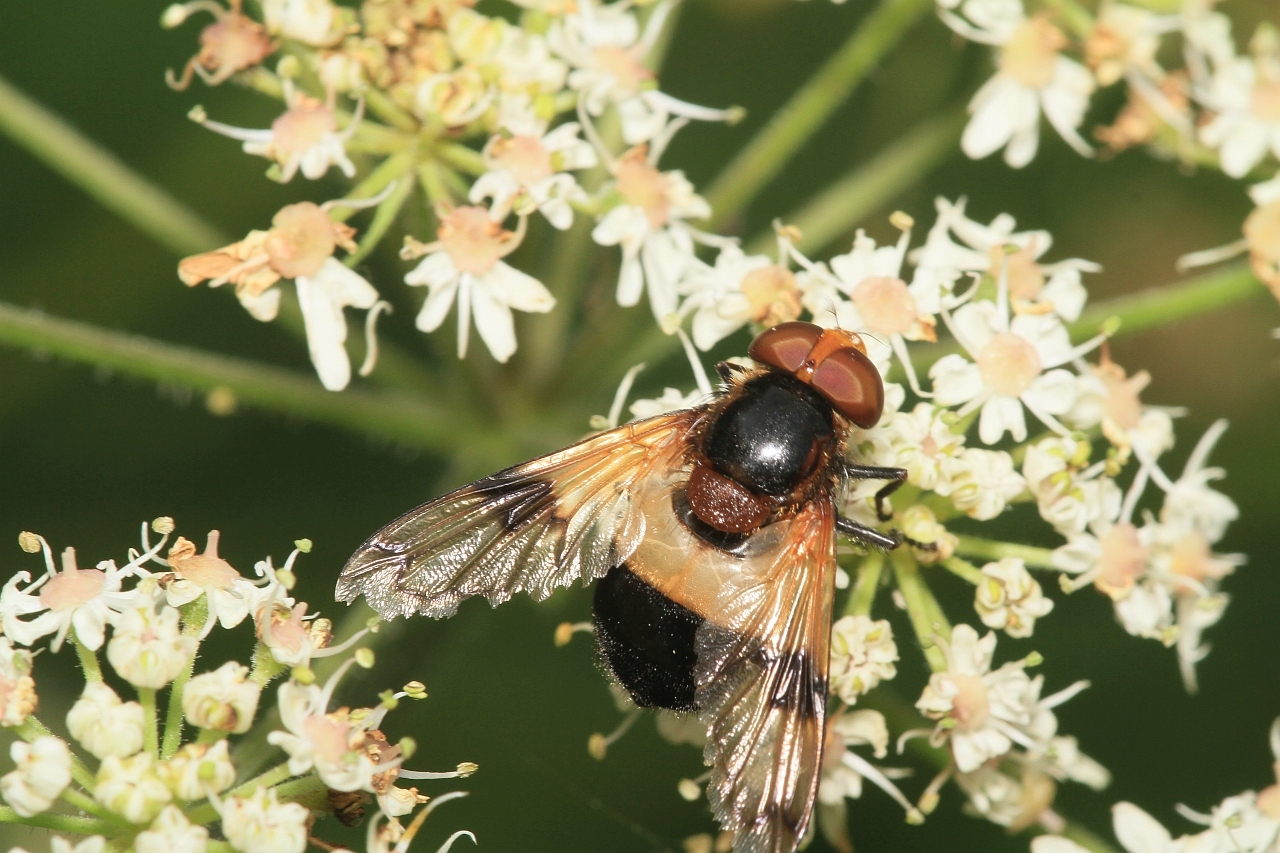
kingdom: Animalia
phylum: Arthropoda
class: Insecta
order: Diptera
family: Syrphidae
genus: Volucella
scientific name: Volucella pellucens
